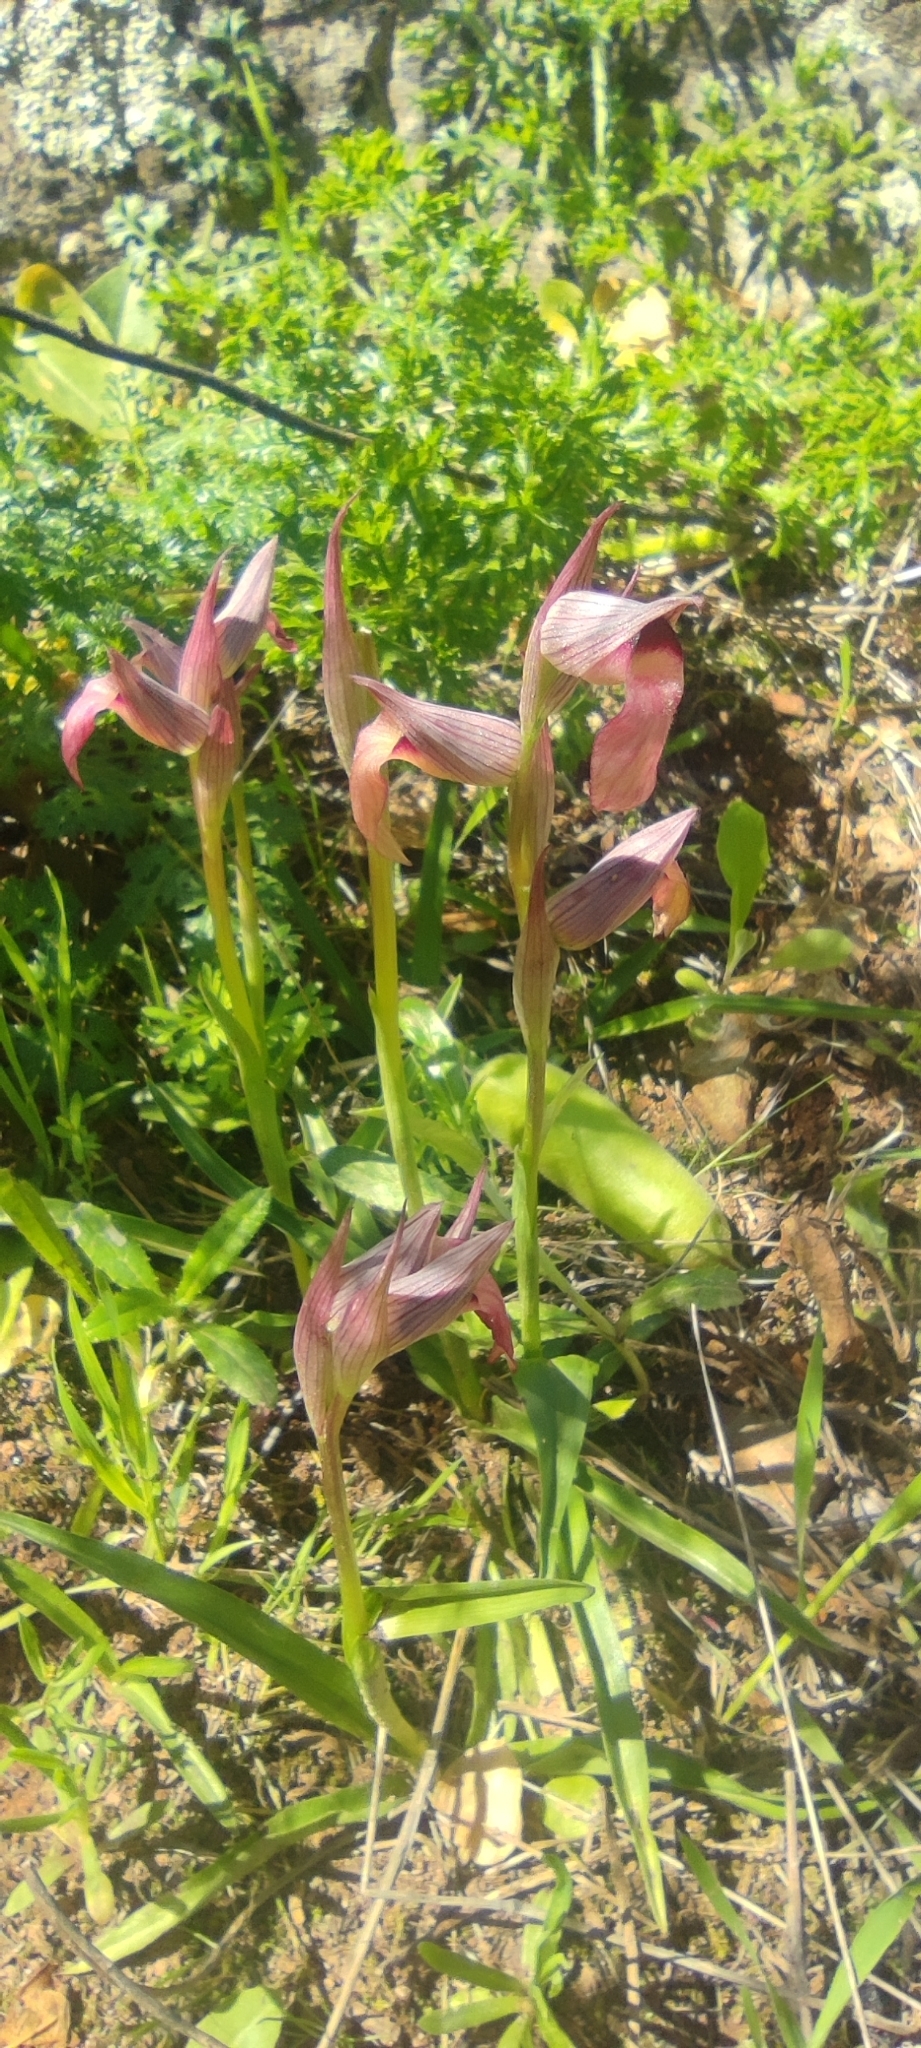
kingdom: Plantae
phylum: Tracheophyta
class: Liliopsida
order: Asparagales
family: Orchidaceae
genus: Serapias
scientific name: Serapias lingua
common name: Tongue-orchid
